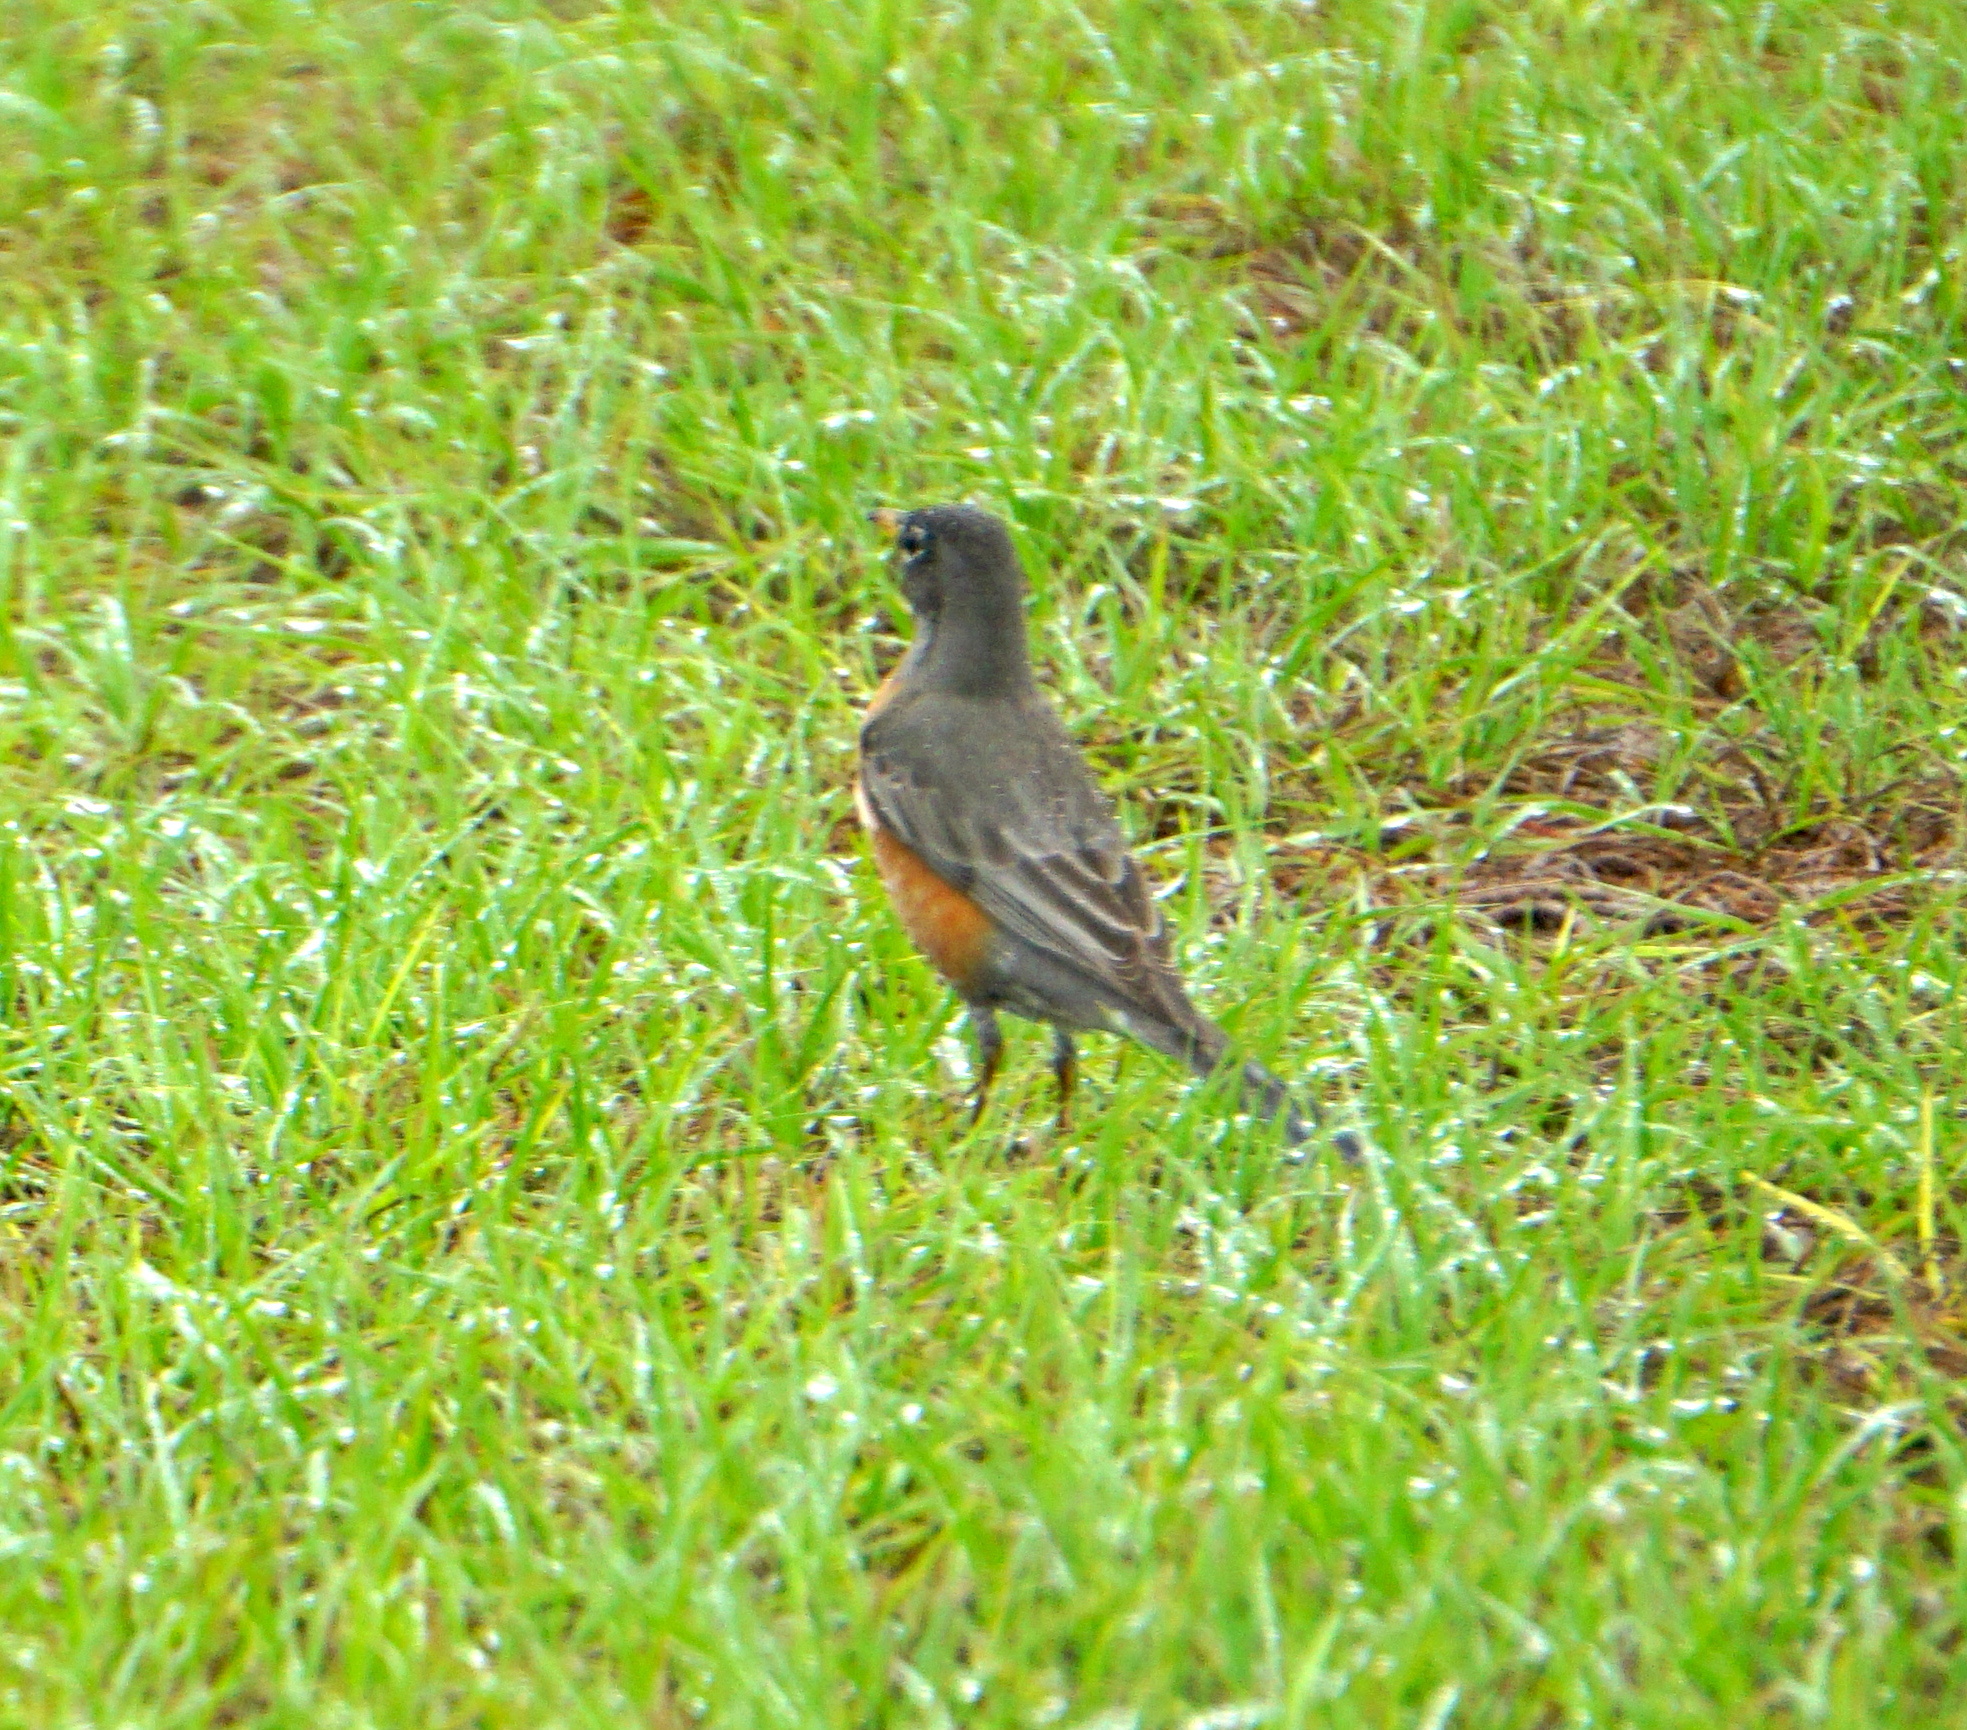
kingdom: Animalia
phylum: Chordata
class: Aves
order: Passeriformes
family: Turdidae
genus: Turdus
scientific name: Turdus migratorius
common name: American robin
